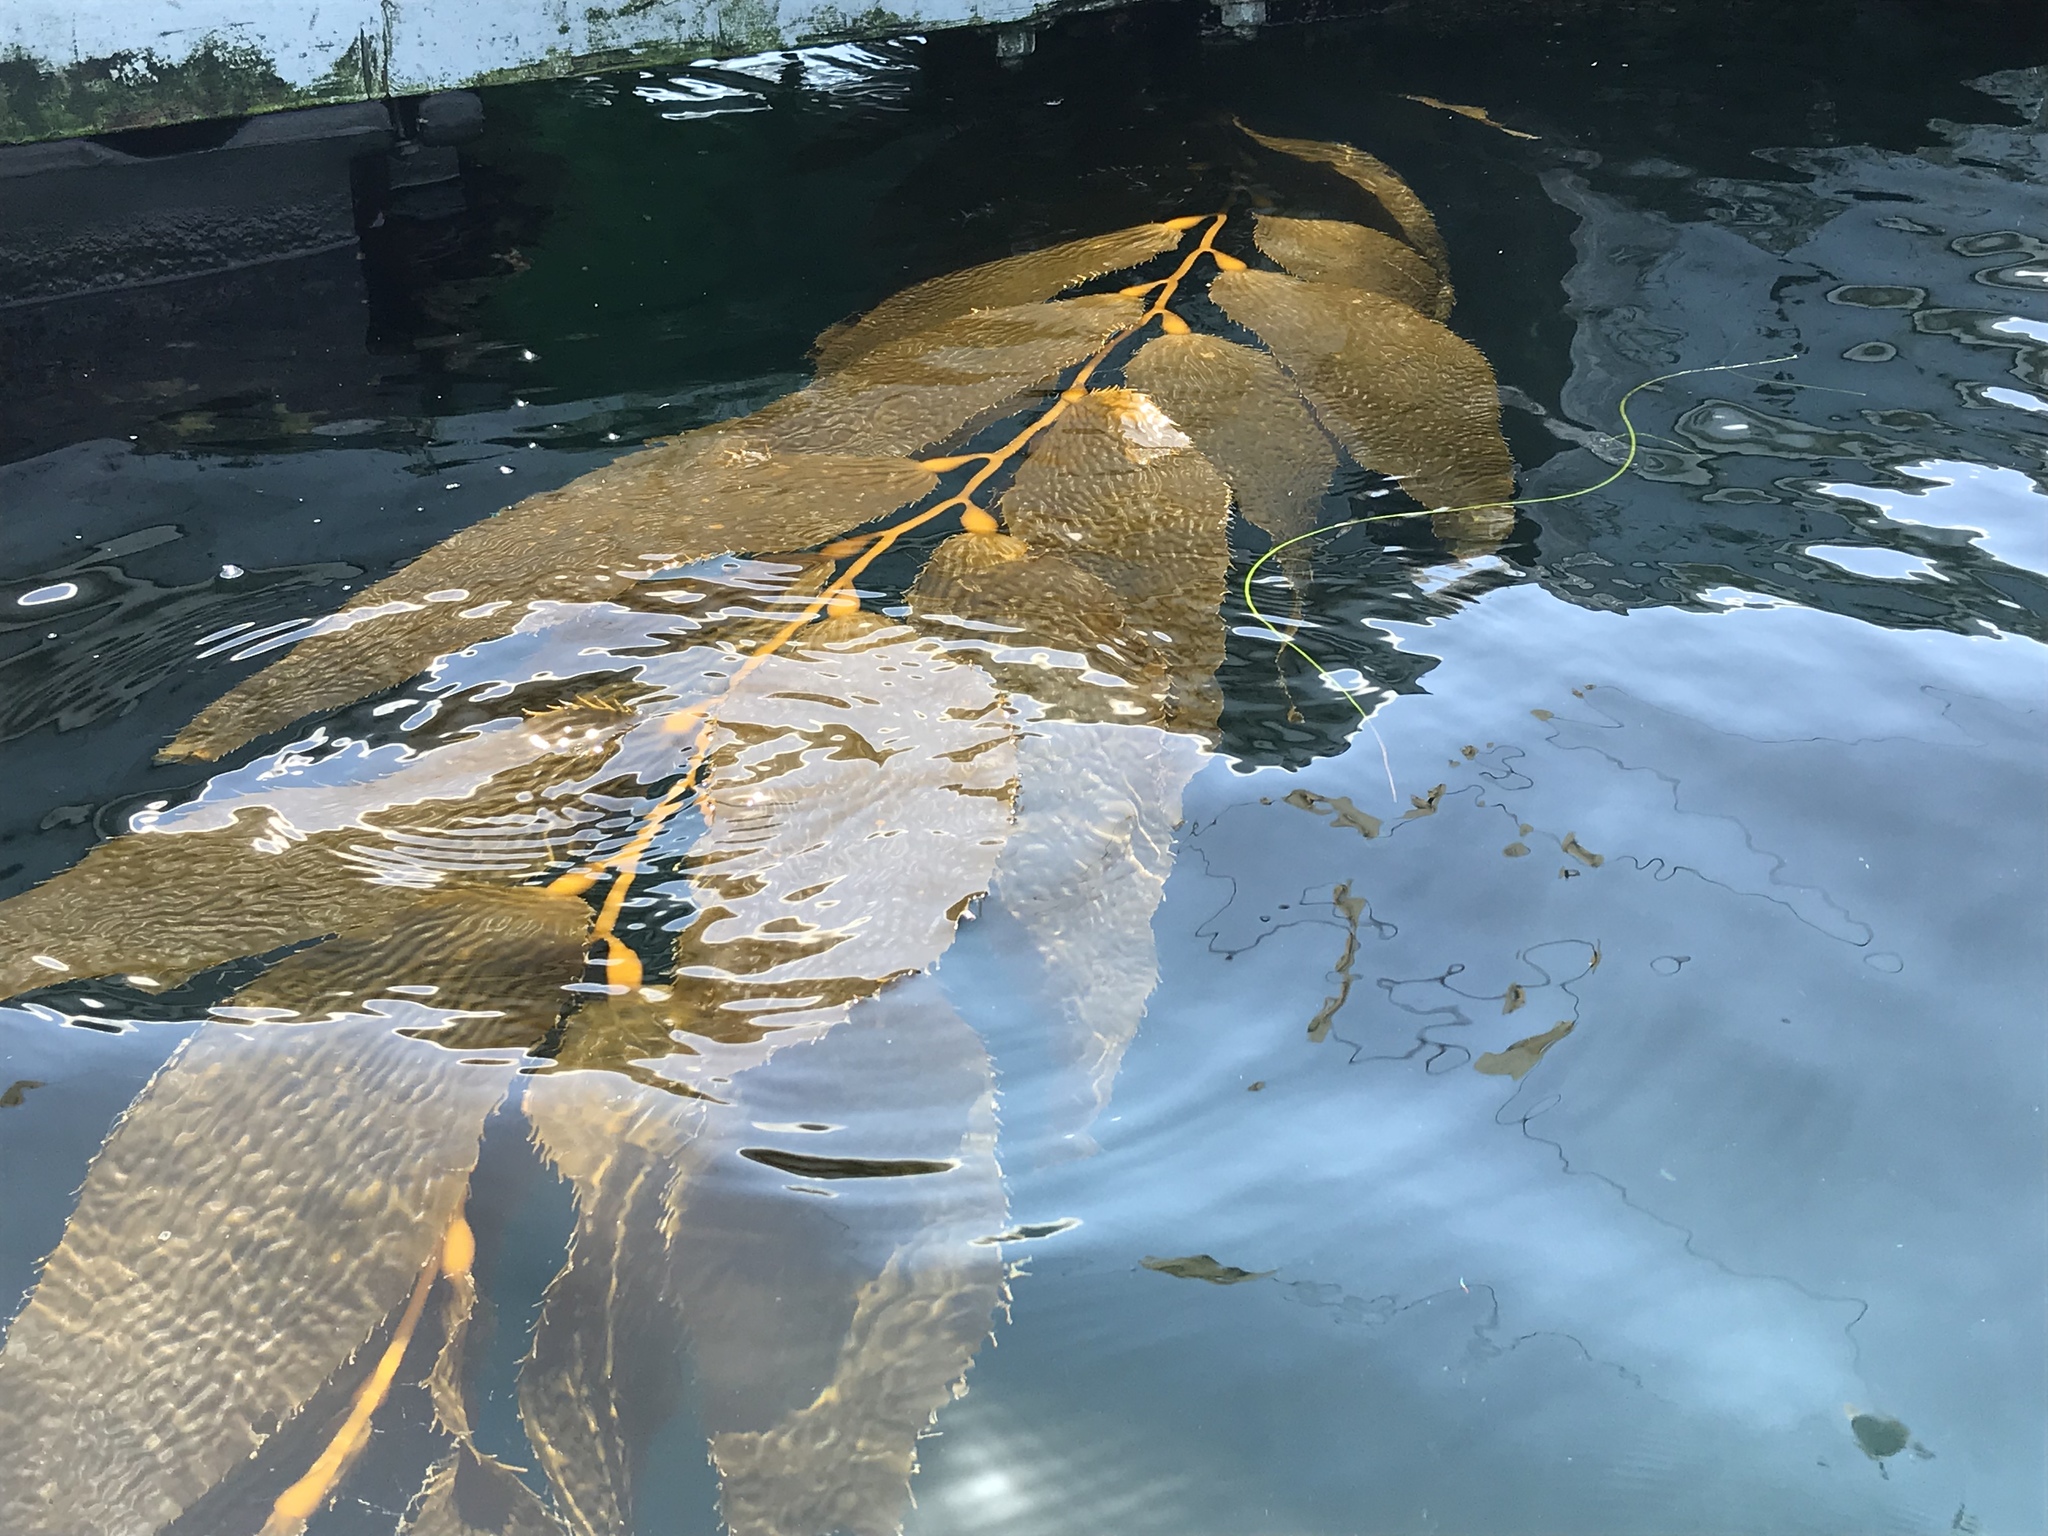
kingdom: Chromista
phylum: Ochrophyta
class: Phaeophyceae
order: Laminariales
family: Laminariaceae
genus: Macrocystis
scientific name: Macrocystis pyrifera
